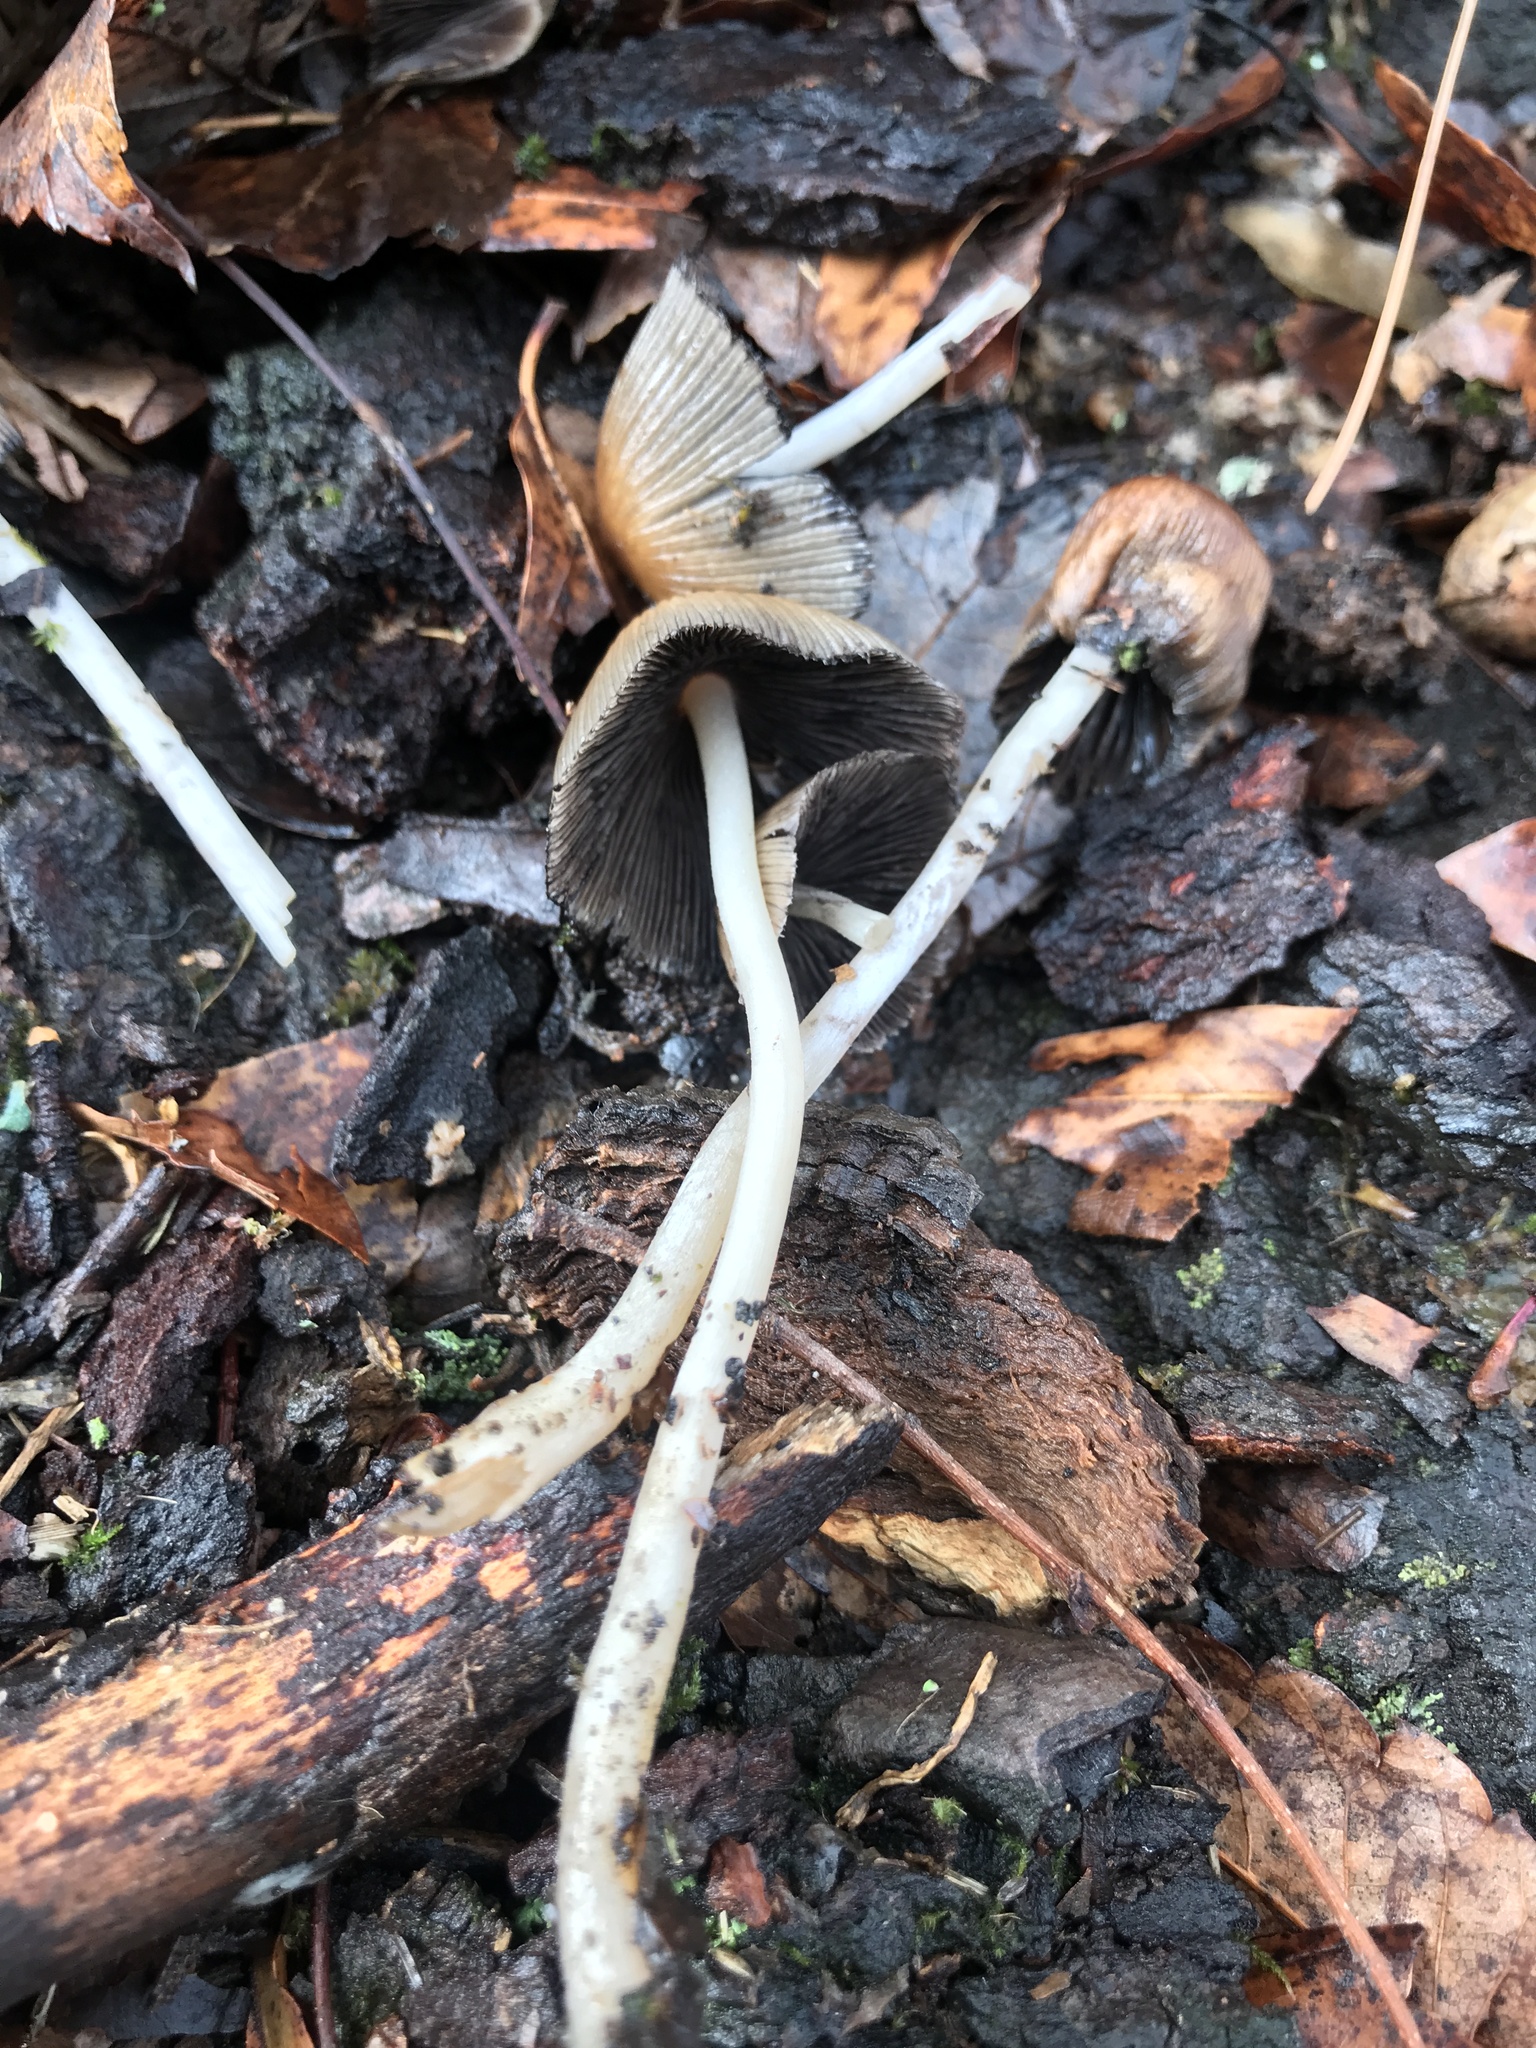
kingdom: Fungi
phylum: Basidiomycota
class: Agaricomycetes
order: Agaricales
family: Psathyrellaceae
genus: Coprinellus
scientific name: Coprinellus micaceus
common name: Glistening ink-cap
